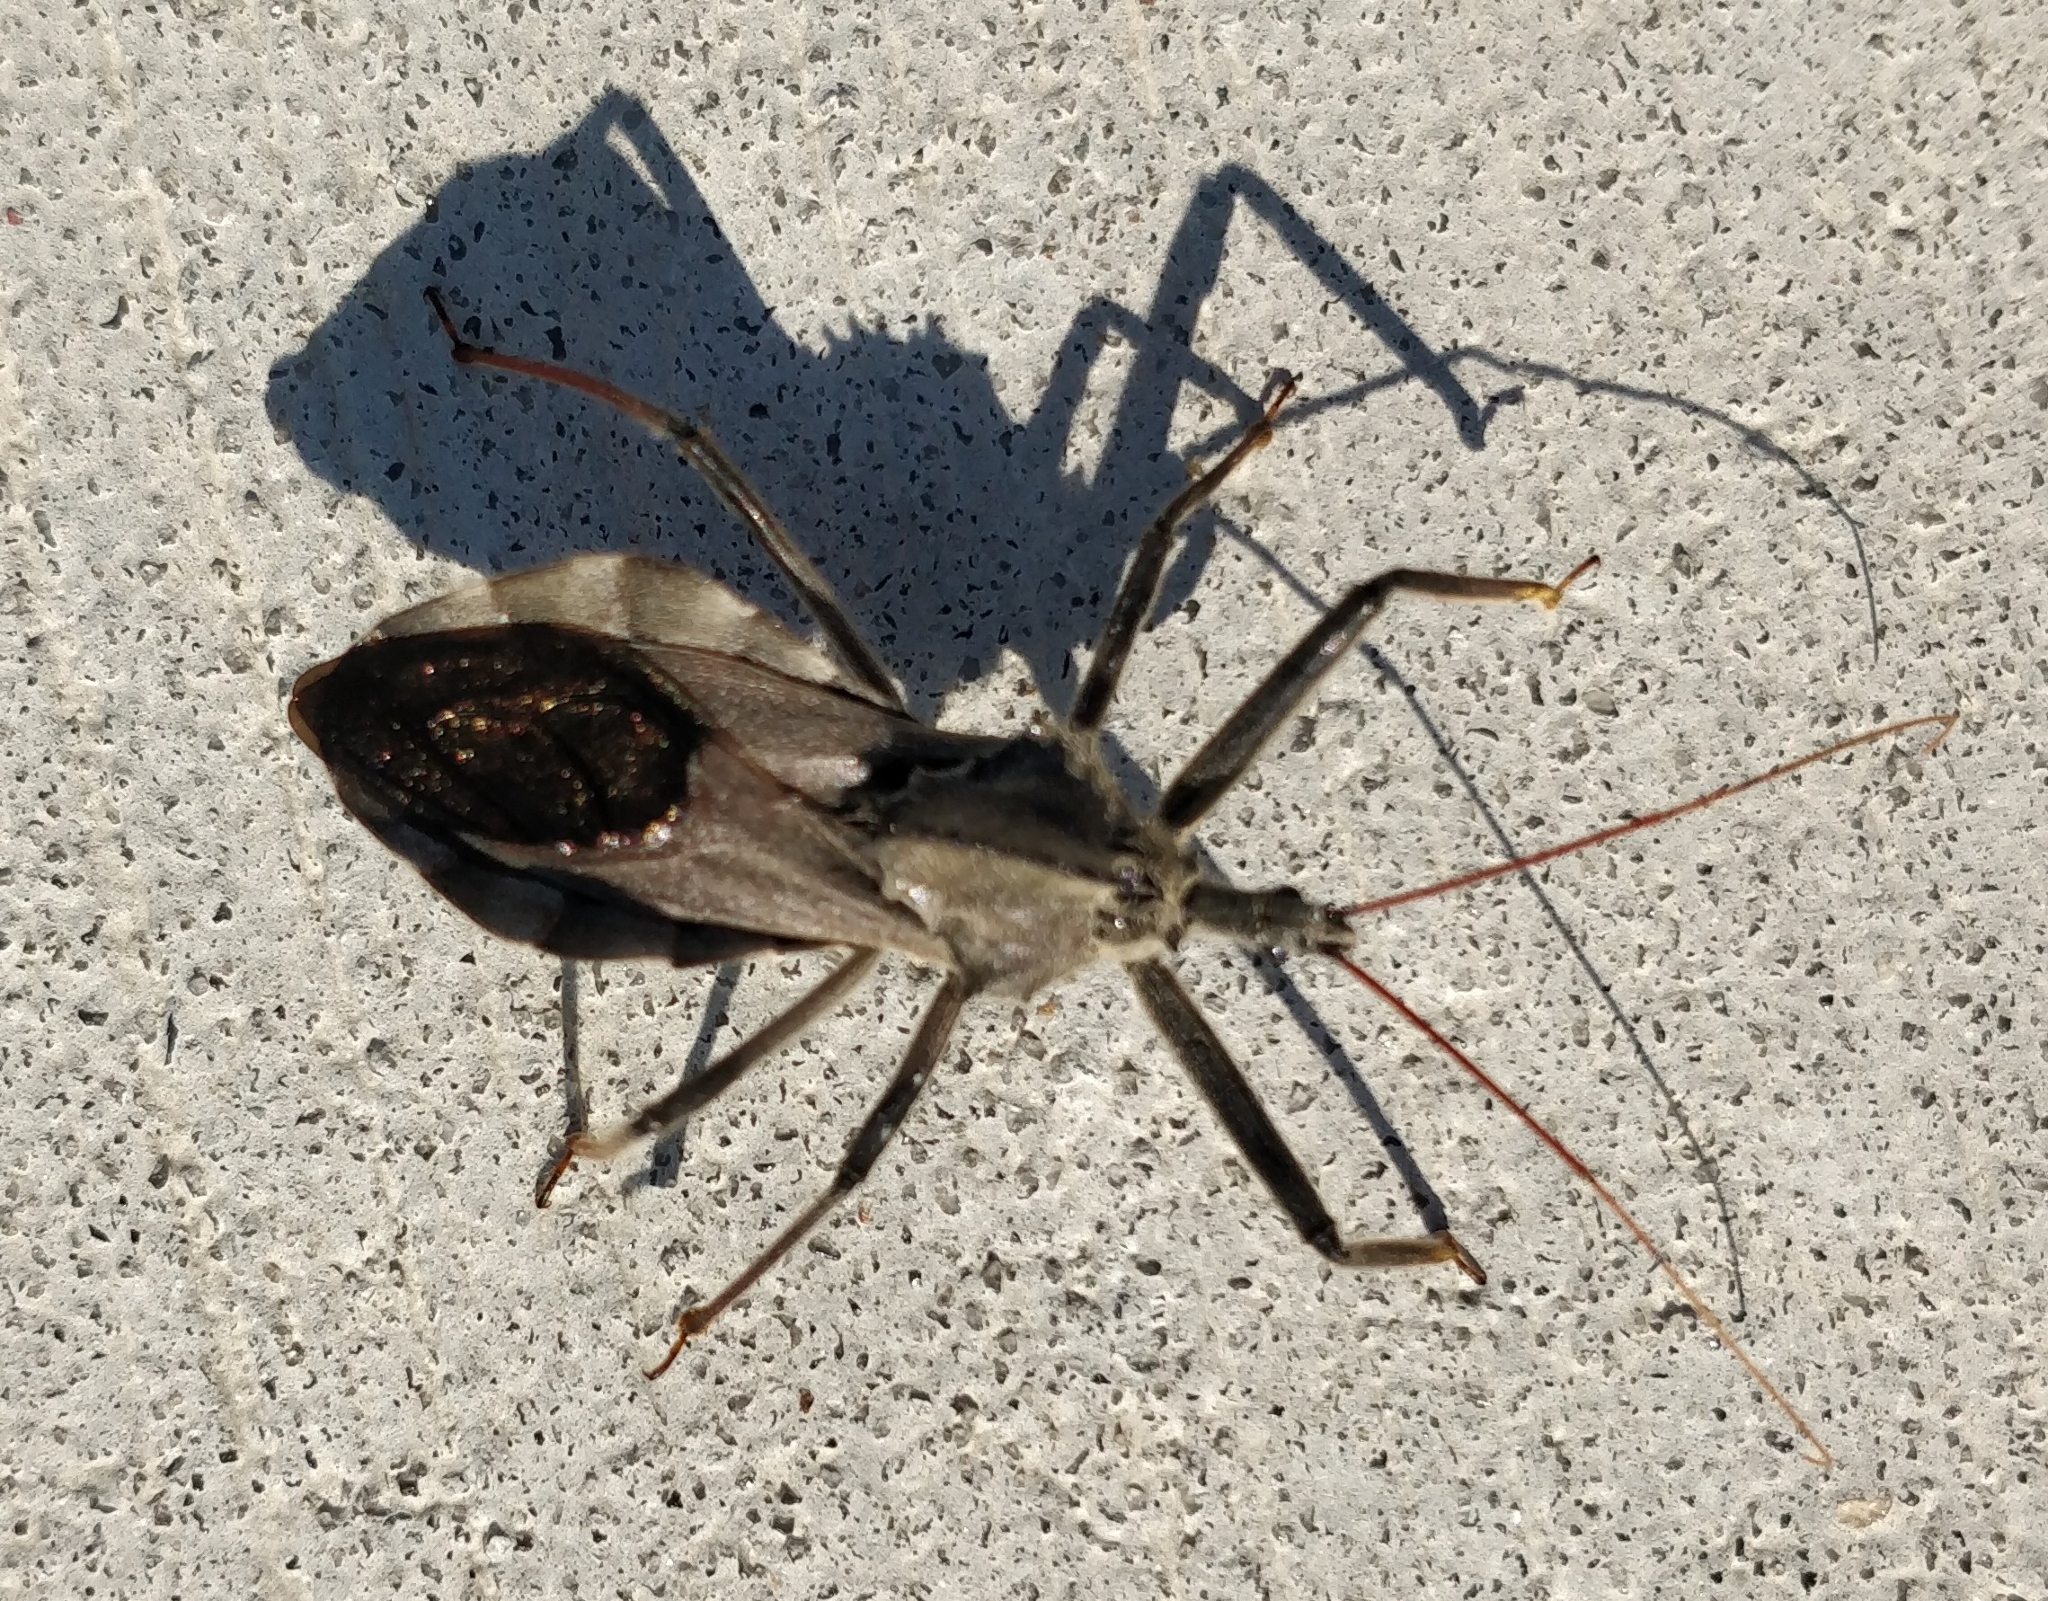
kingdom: Animalia
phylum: Arthropoda
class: Insecta
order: Hemiptera
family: Reduviidae
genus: Arilus
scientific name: Arilus cristatus
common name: North american wheel bug
